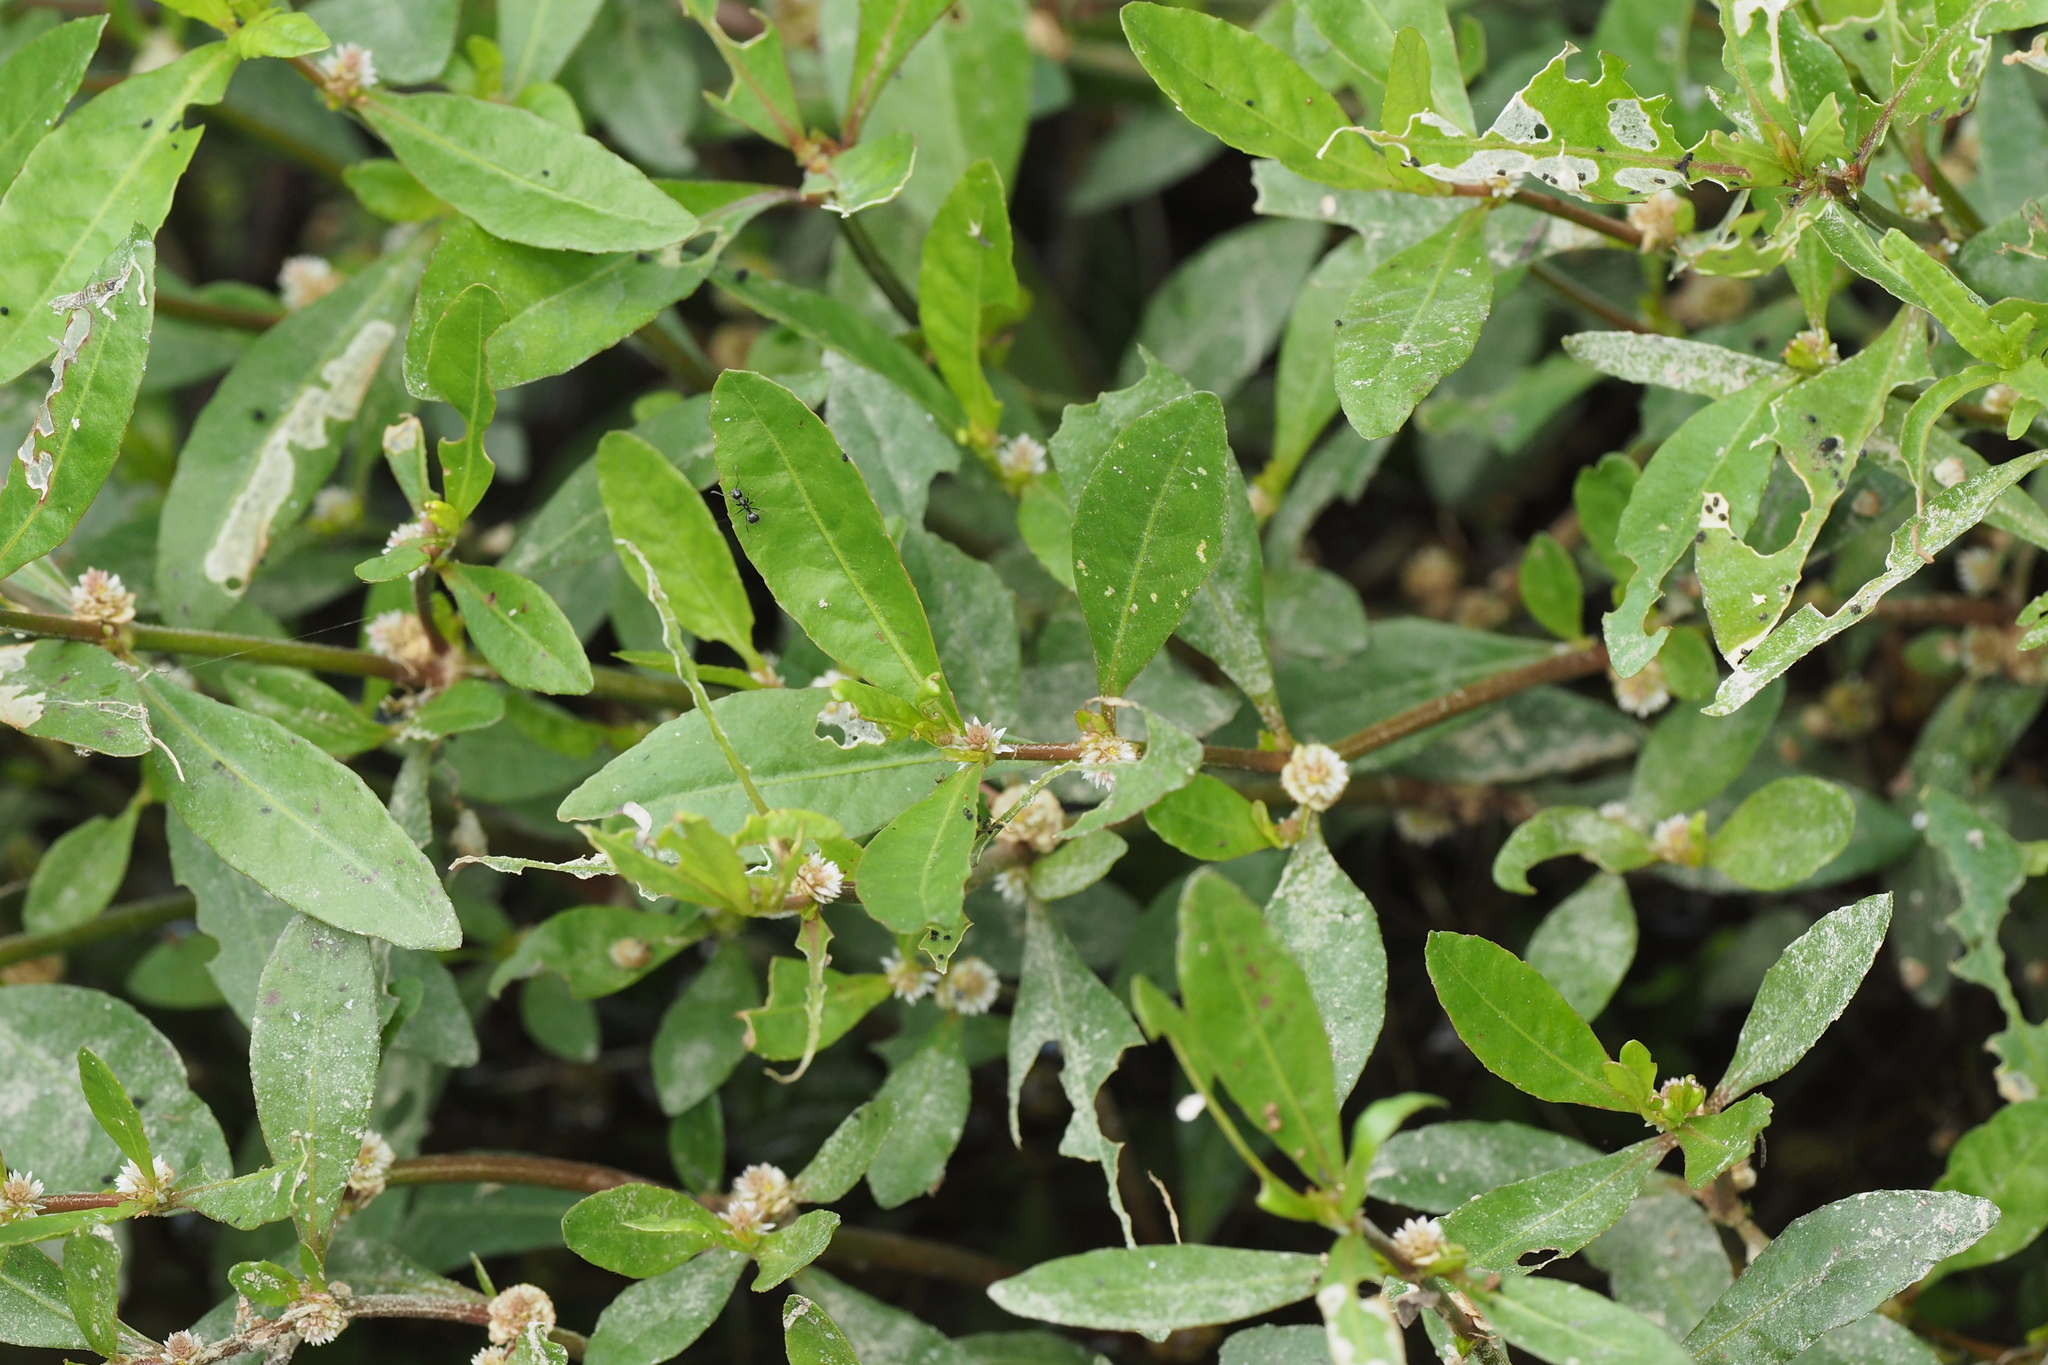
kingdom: Plantae
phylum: Tracheophyta
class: Magnoliopsida
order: Caryophyllales
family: Amaranthaceae
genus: Alternanthera
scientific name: Alternanthera sessilis
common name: Sessile joyweed
